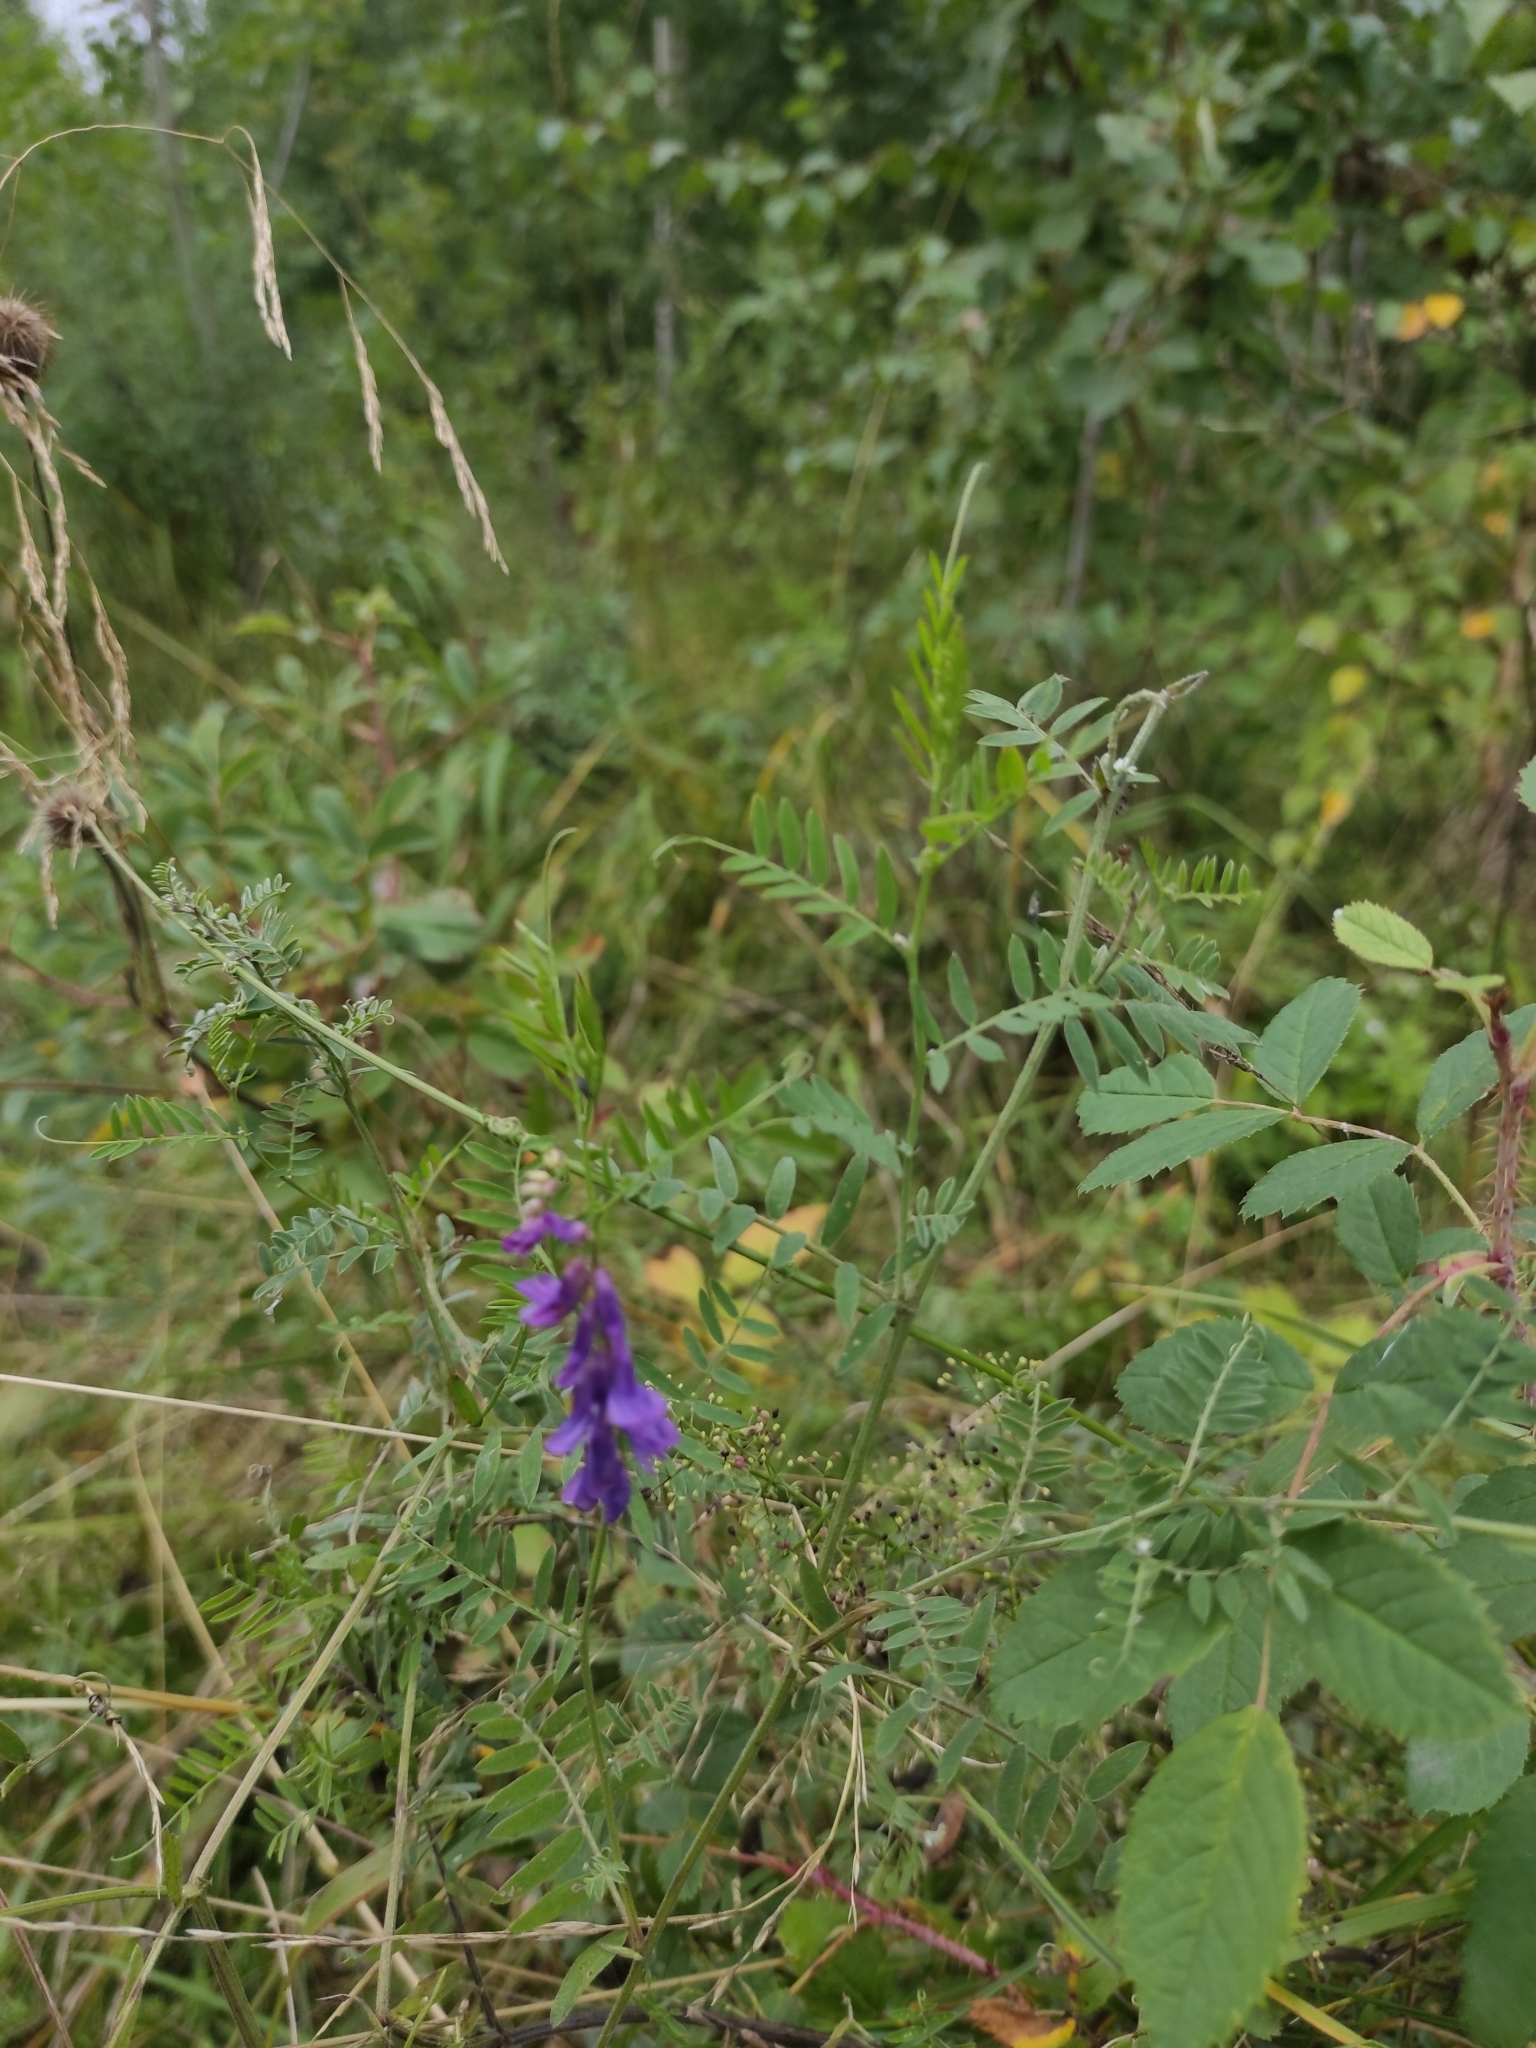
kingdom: Plantae
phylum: Tracheophyta
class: Magnoliopsida
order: Fabales
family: Fabaceae
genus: Vicia
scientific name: Vicia cracca
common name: Bird vetch
